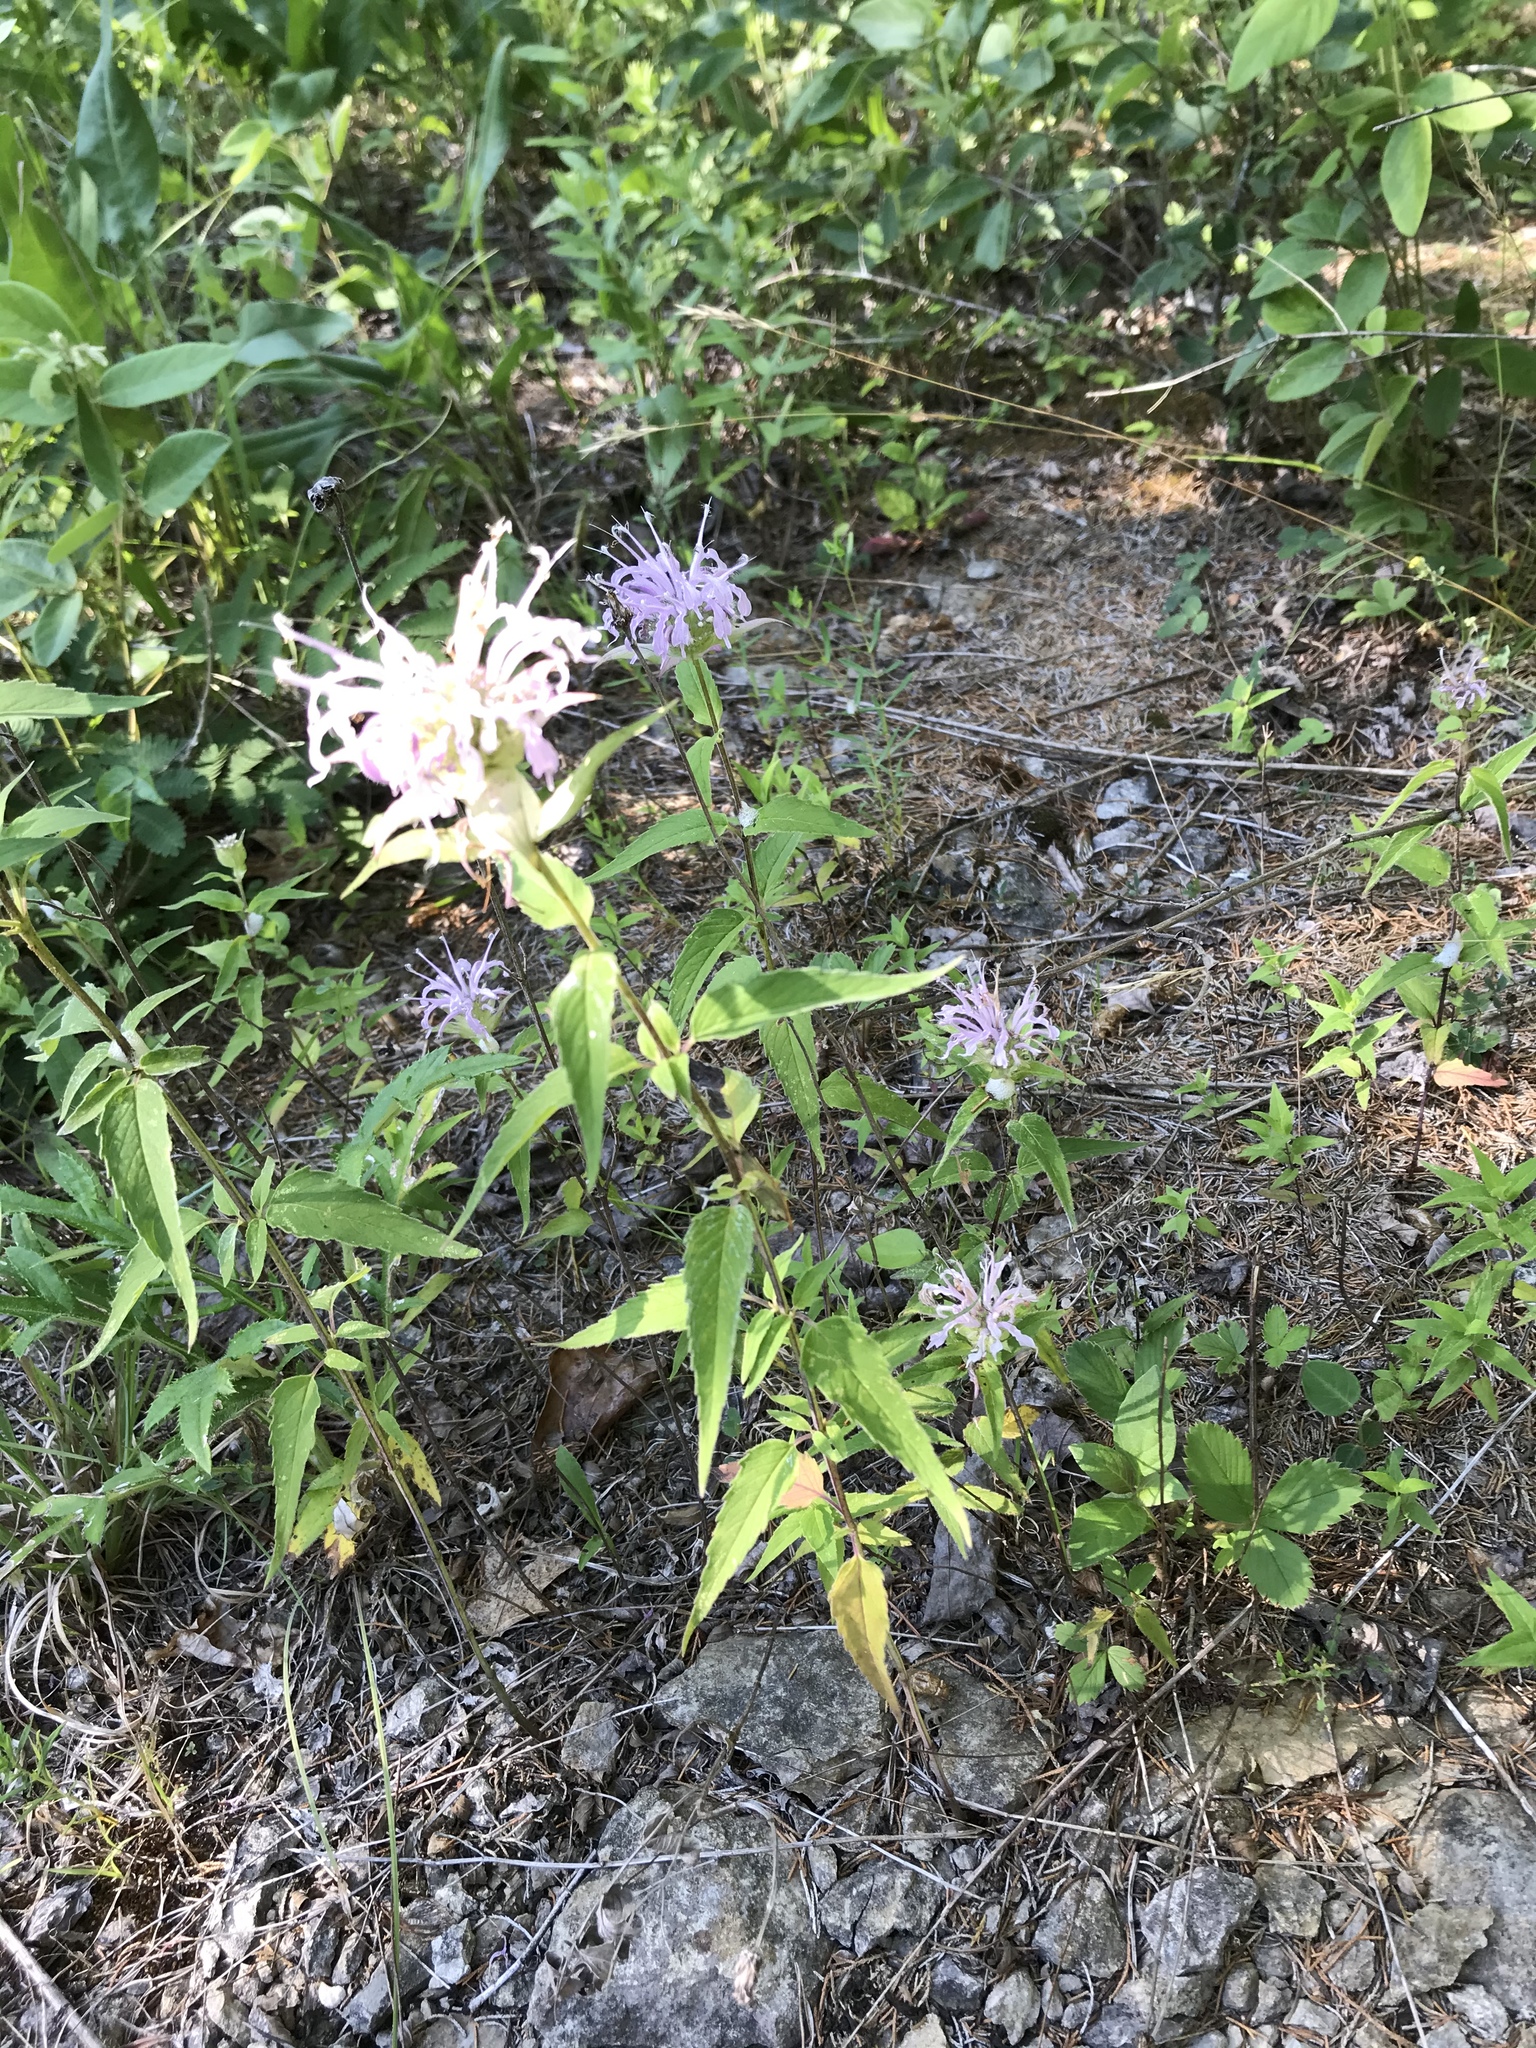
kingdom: Plantae
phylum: Tracheophyta
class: Magnoliopsida
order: Lamiales
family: Lamiaceae
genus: Monarda
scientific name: Monarda fistulosa
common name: Purple beebalm
